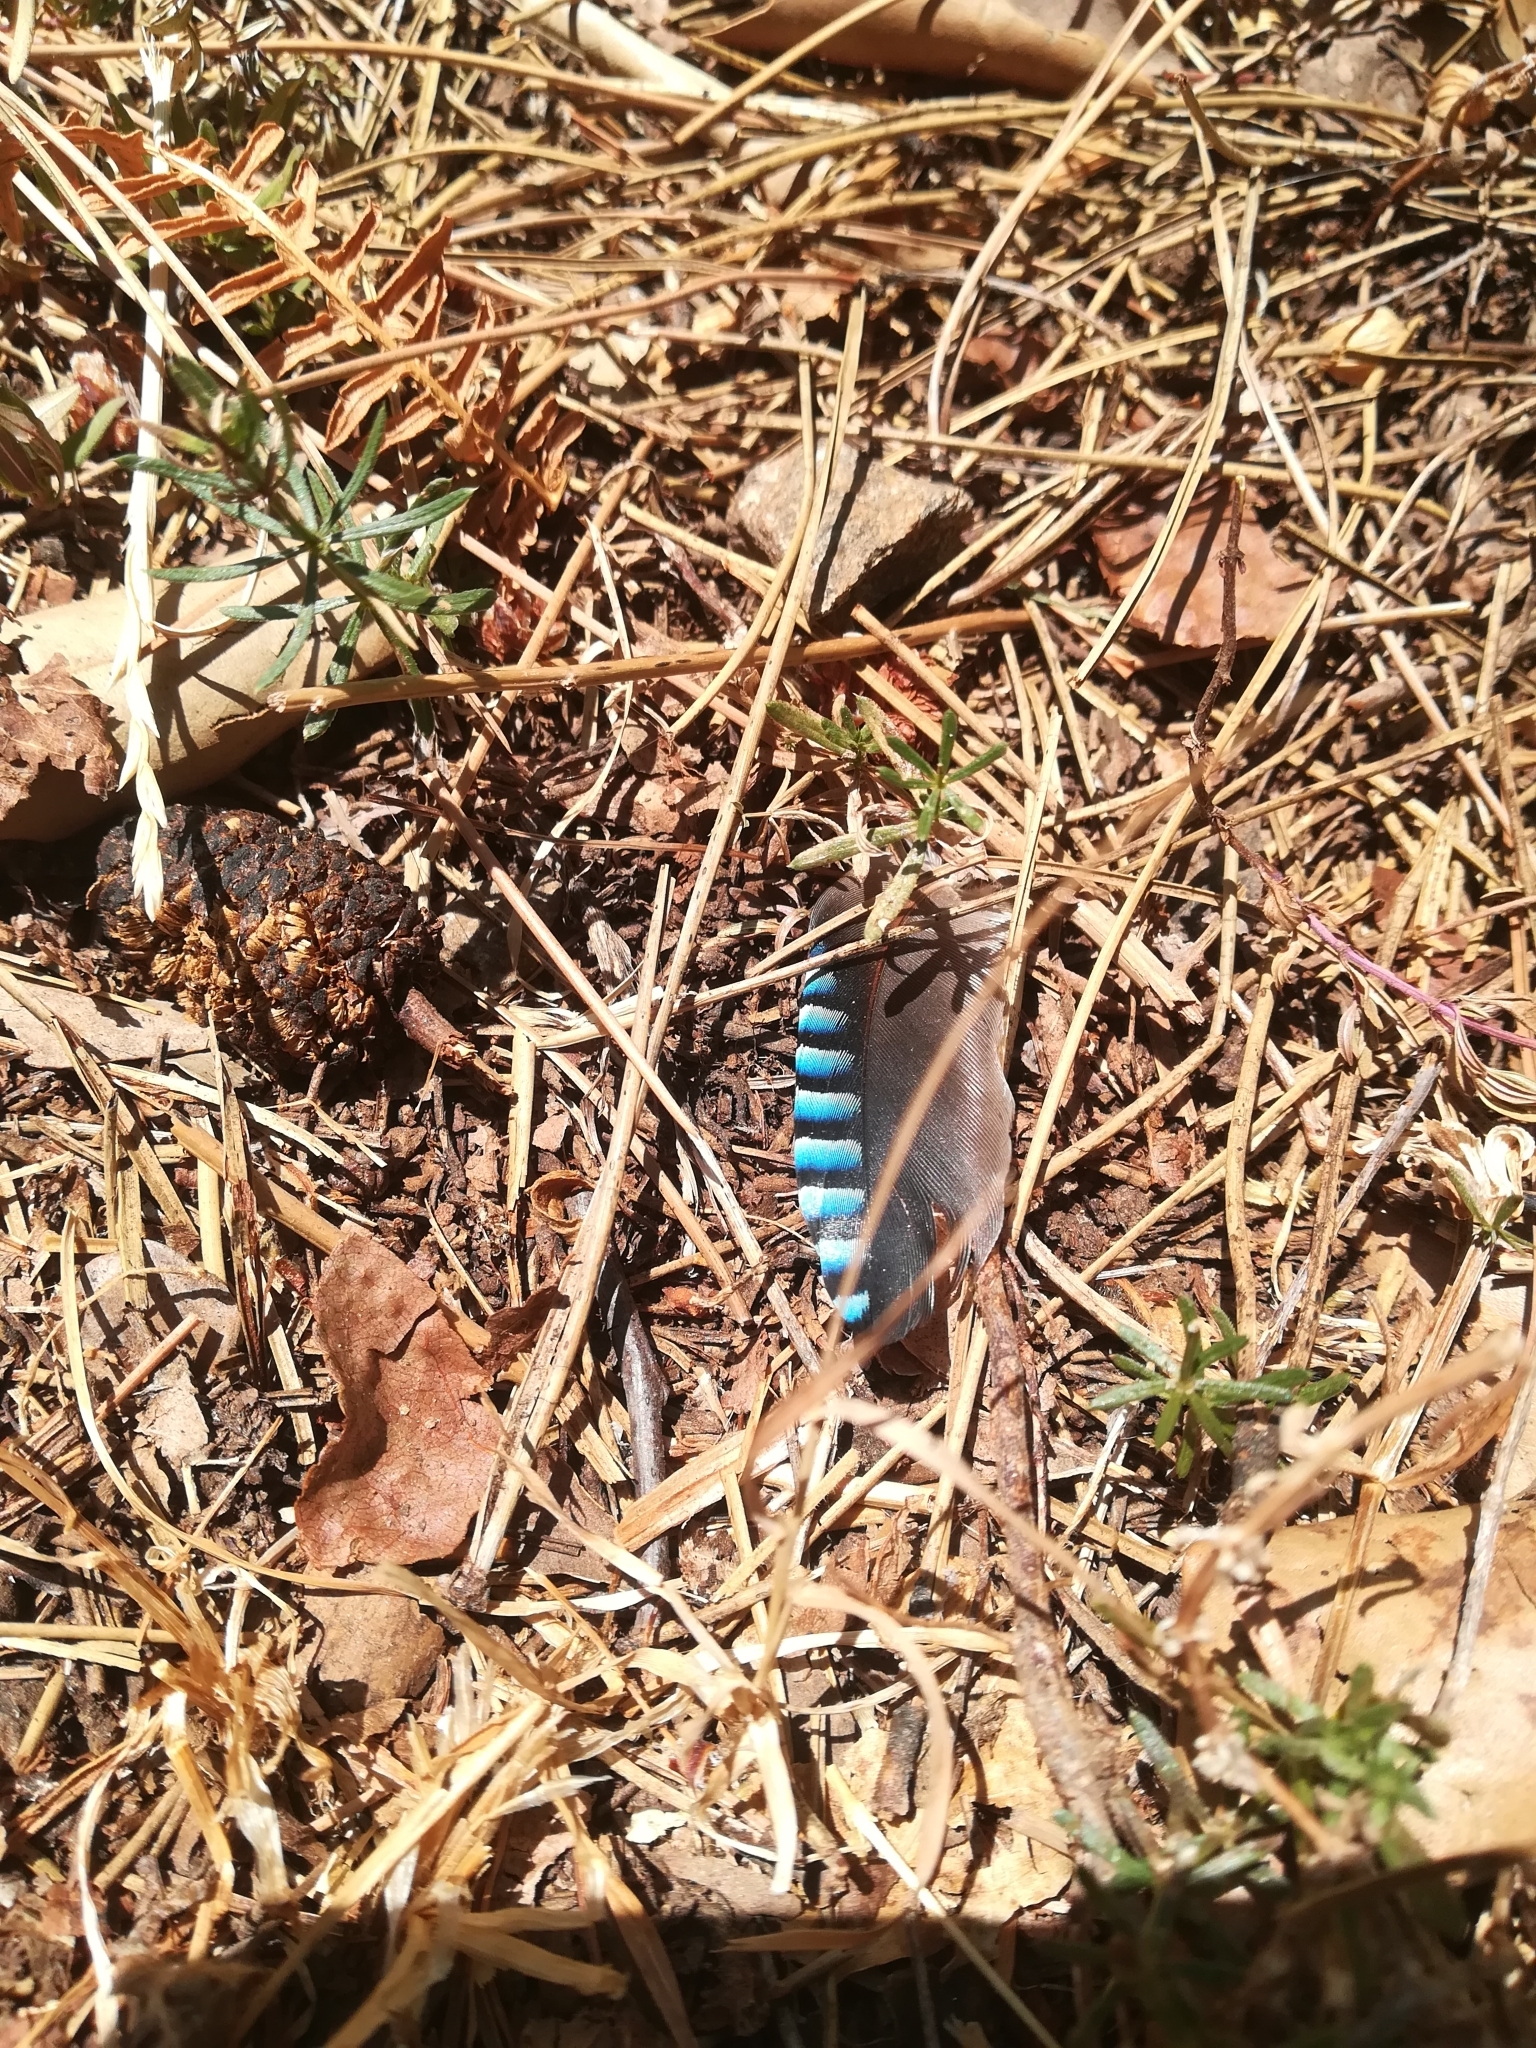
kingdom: Animalia
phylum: Chordata
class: Aves
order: Passeriformes
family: Corvidae
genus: Garrulus
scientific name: Garrulus glandarius
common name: Eurasian jay
